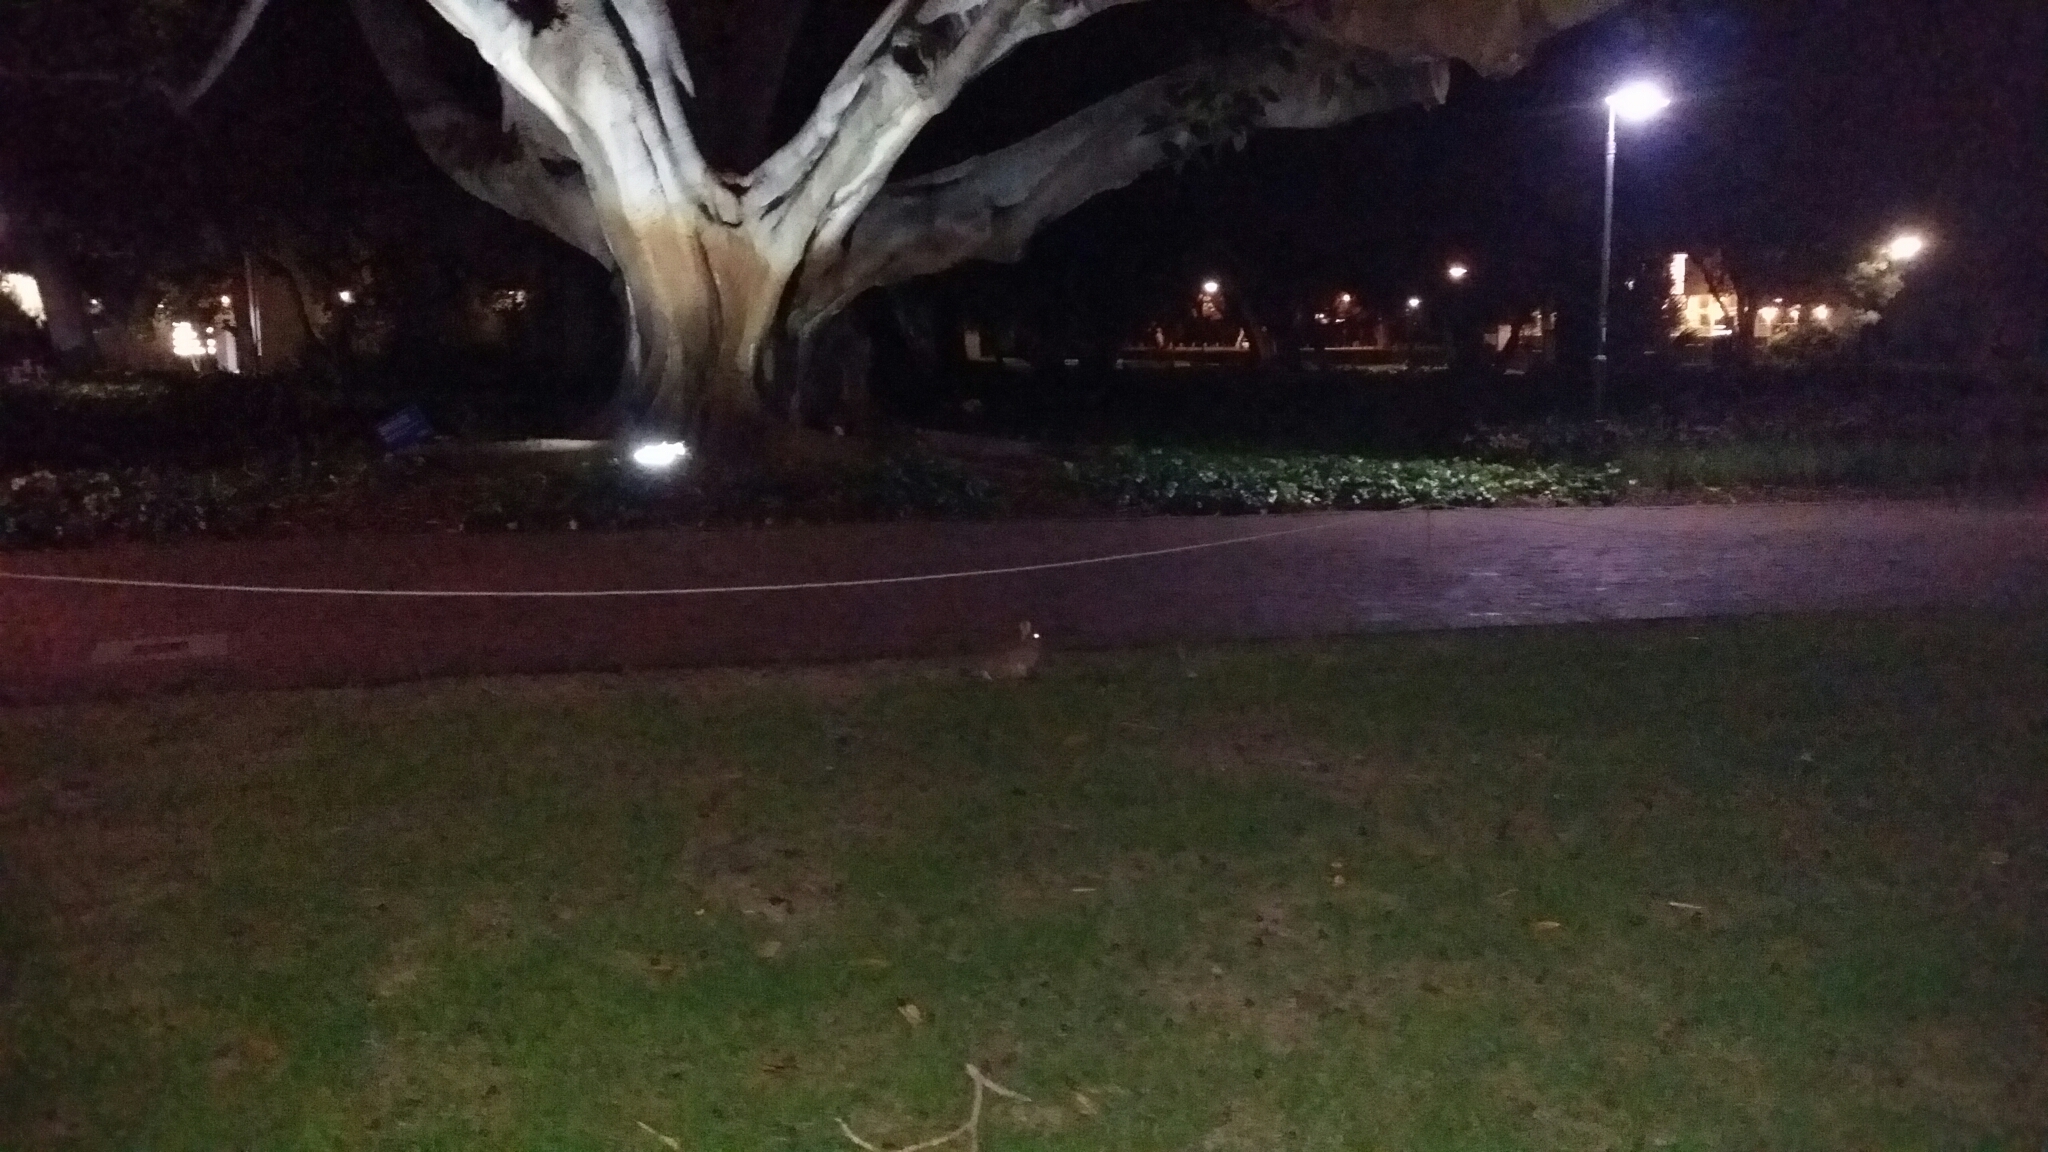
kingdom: Animalia
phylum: Chordata
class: Mammalia
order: Lagomorpha
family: Leporidae
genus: Oryctolagus
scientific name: Oryctolagus cuniculus
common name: European rabbit
